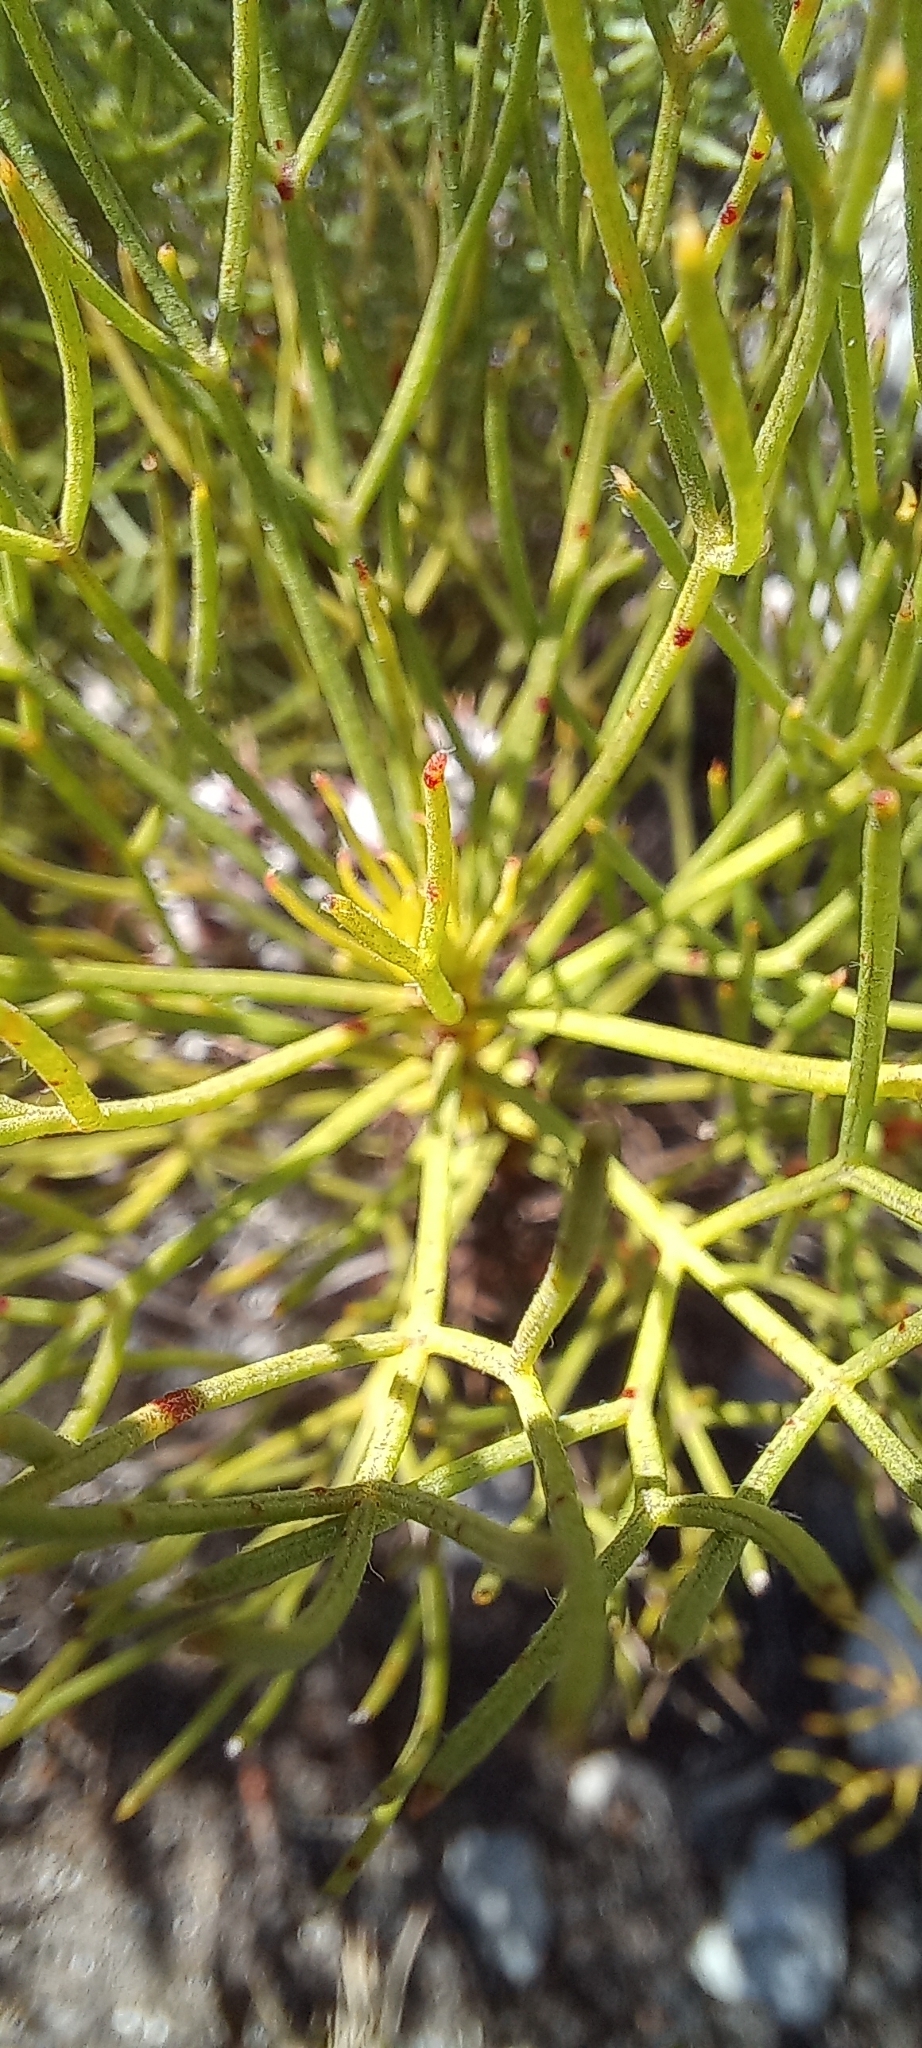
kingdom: Plantae
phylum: Tracheophyta
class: Magnoliopsida
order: Proteales
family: Proteaceae
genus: Serruria
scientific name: Serruria ascendens
